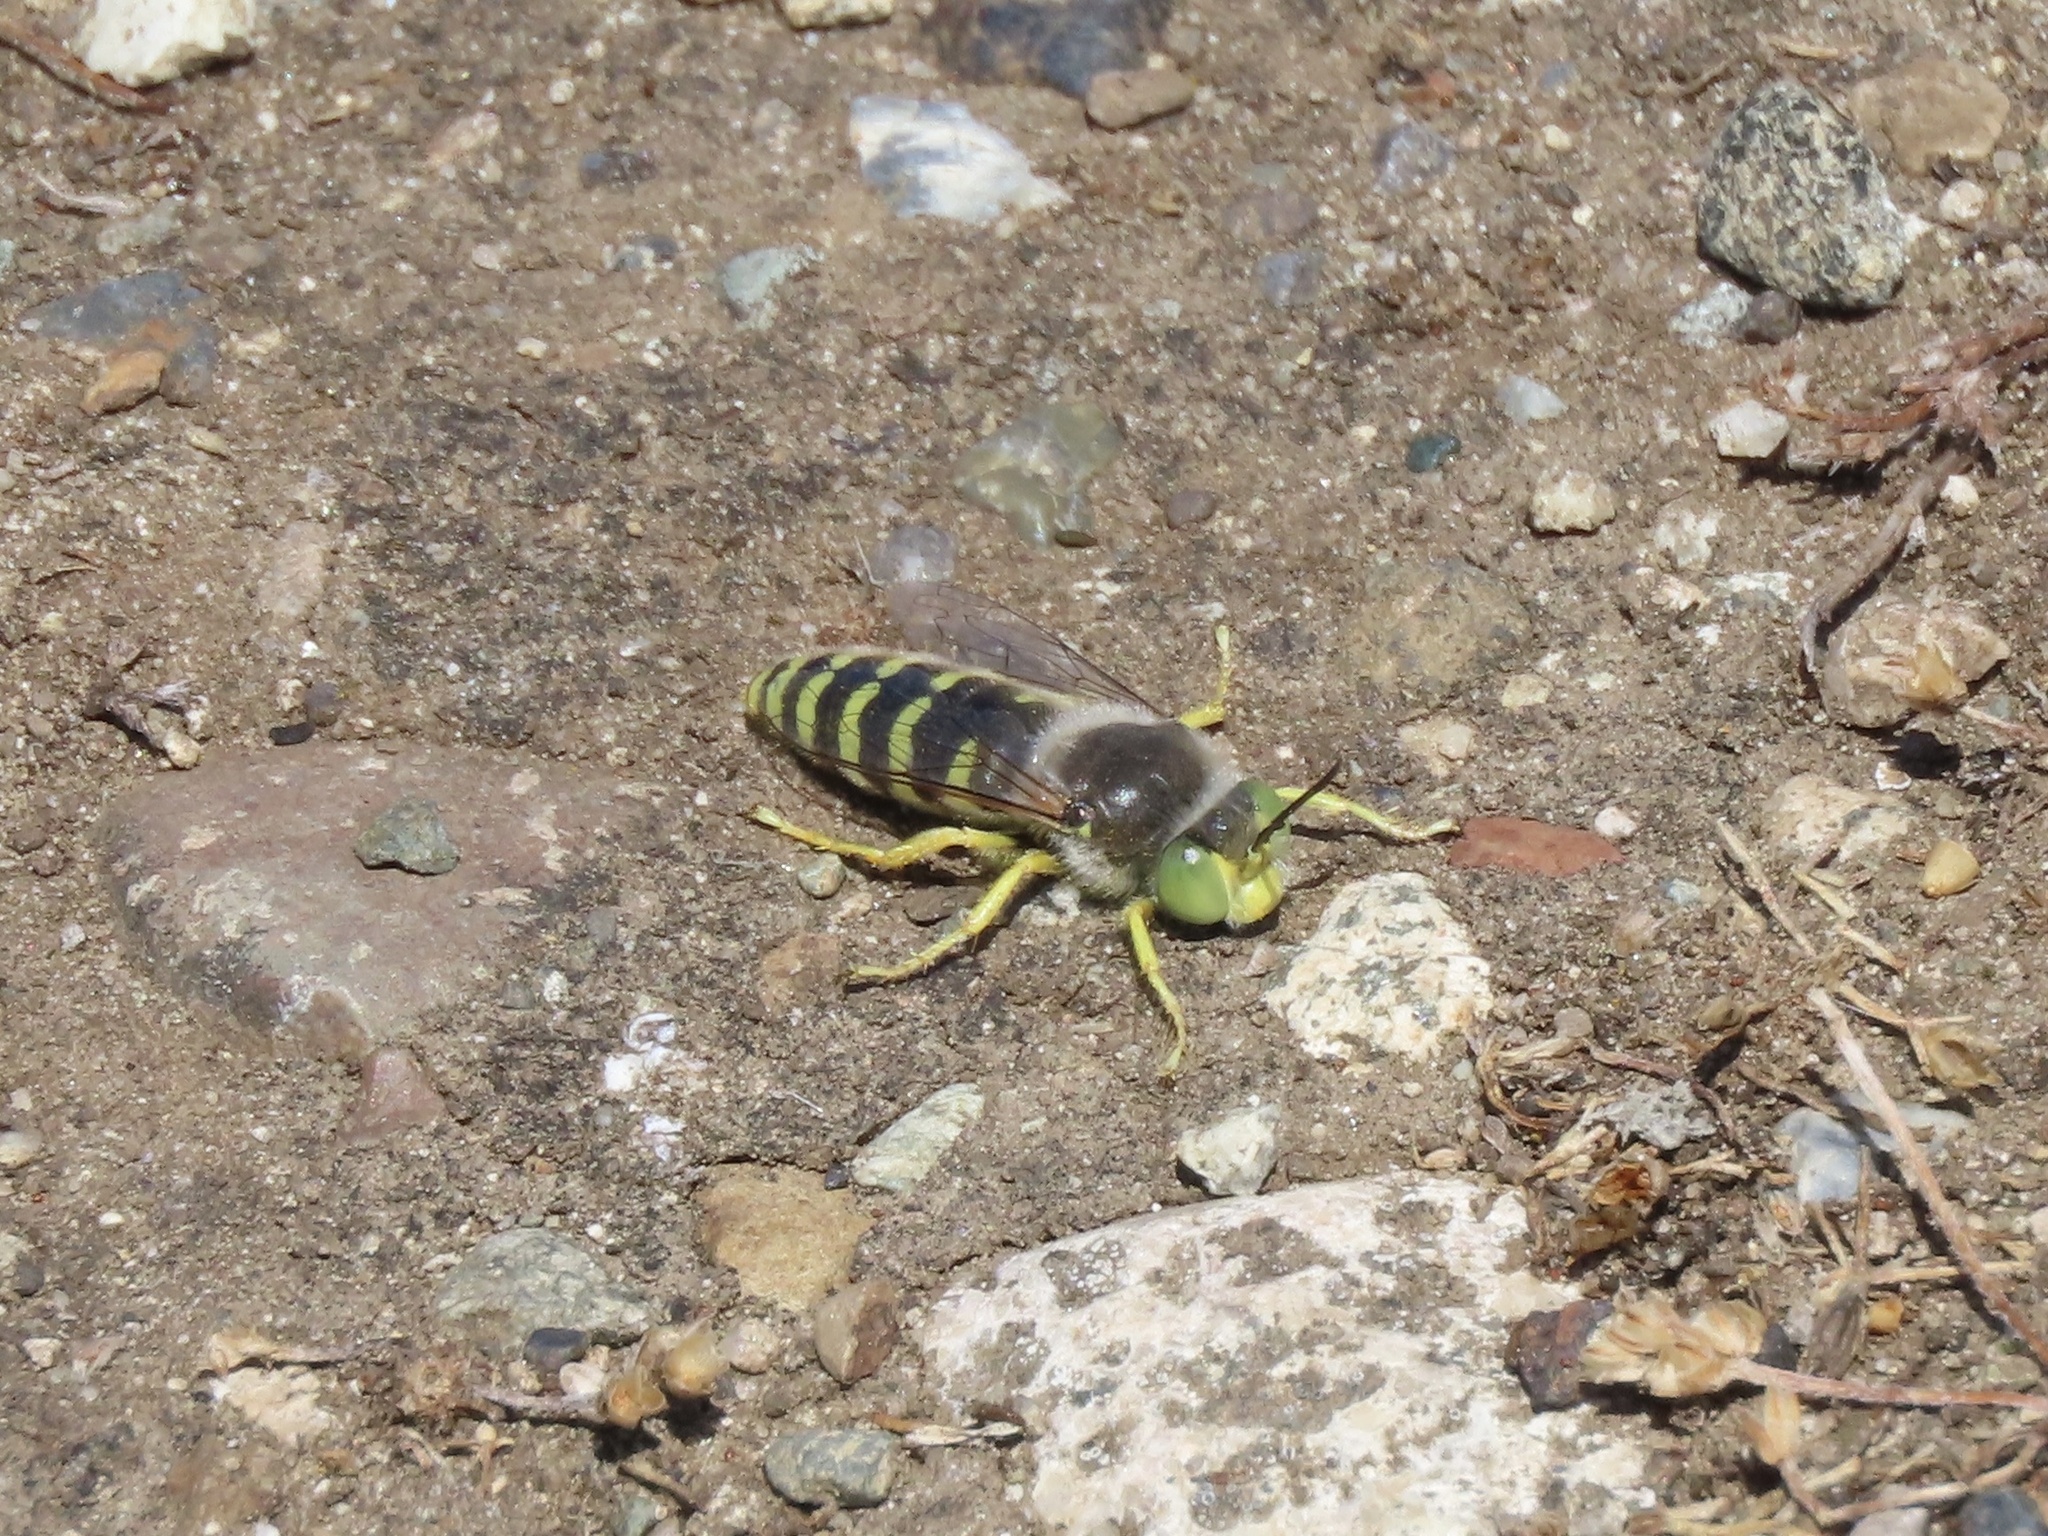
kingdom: Animalia
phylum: Arthropoda
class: Insecta
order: Hymenoptera
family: Crabronidae
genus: Bembix
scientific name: Bembix americana
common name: American sand wasp
